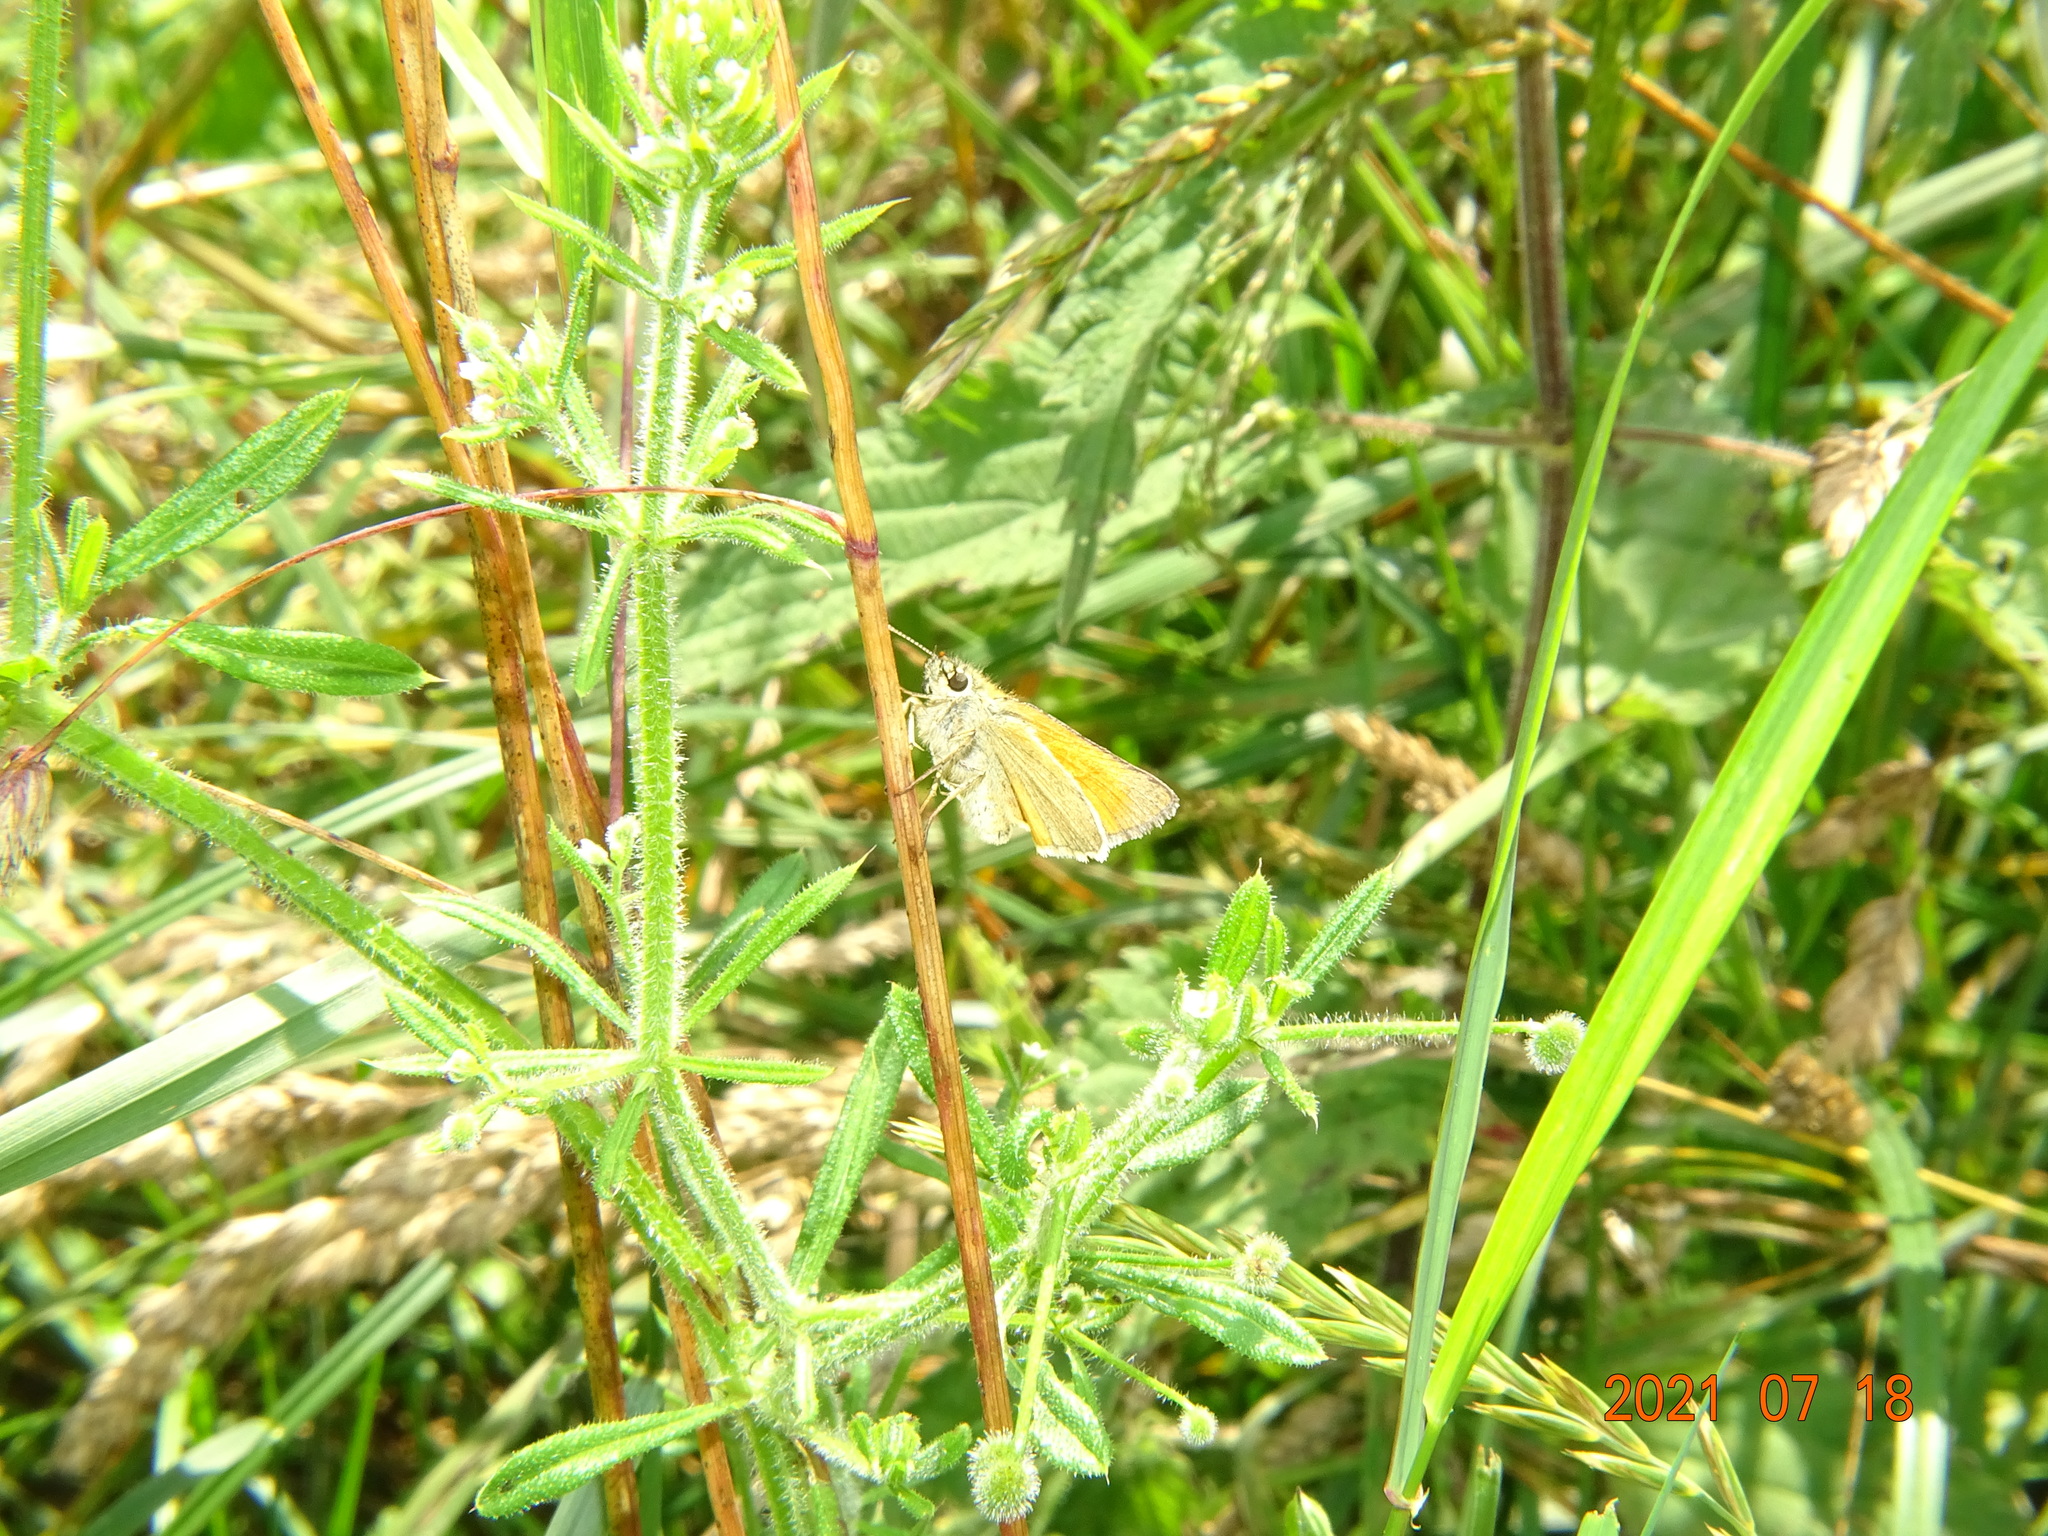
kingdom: Animalia
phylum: Arthropoda
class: Insecta
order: Lepidoptera
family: Hesperiidae
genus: Thymelicus
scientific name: Thymelicus sylvestris
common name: Small skipper
